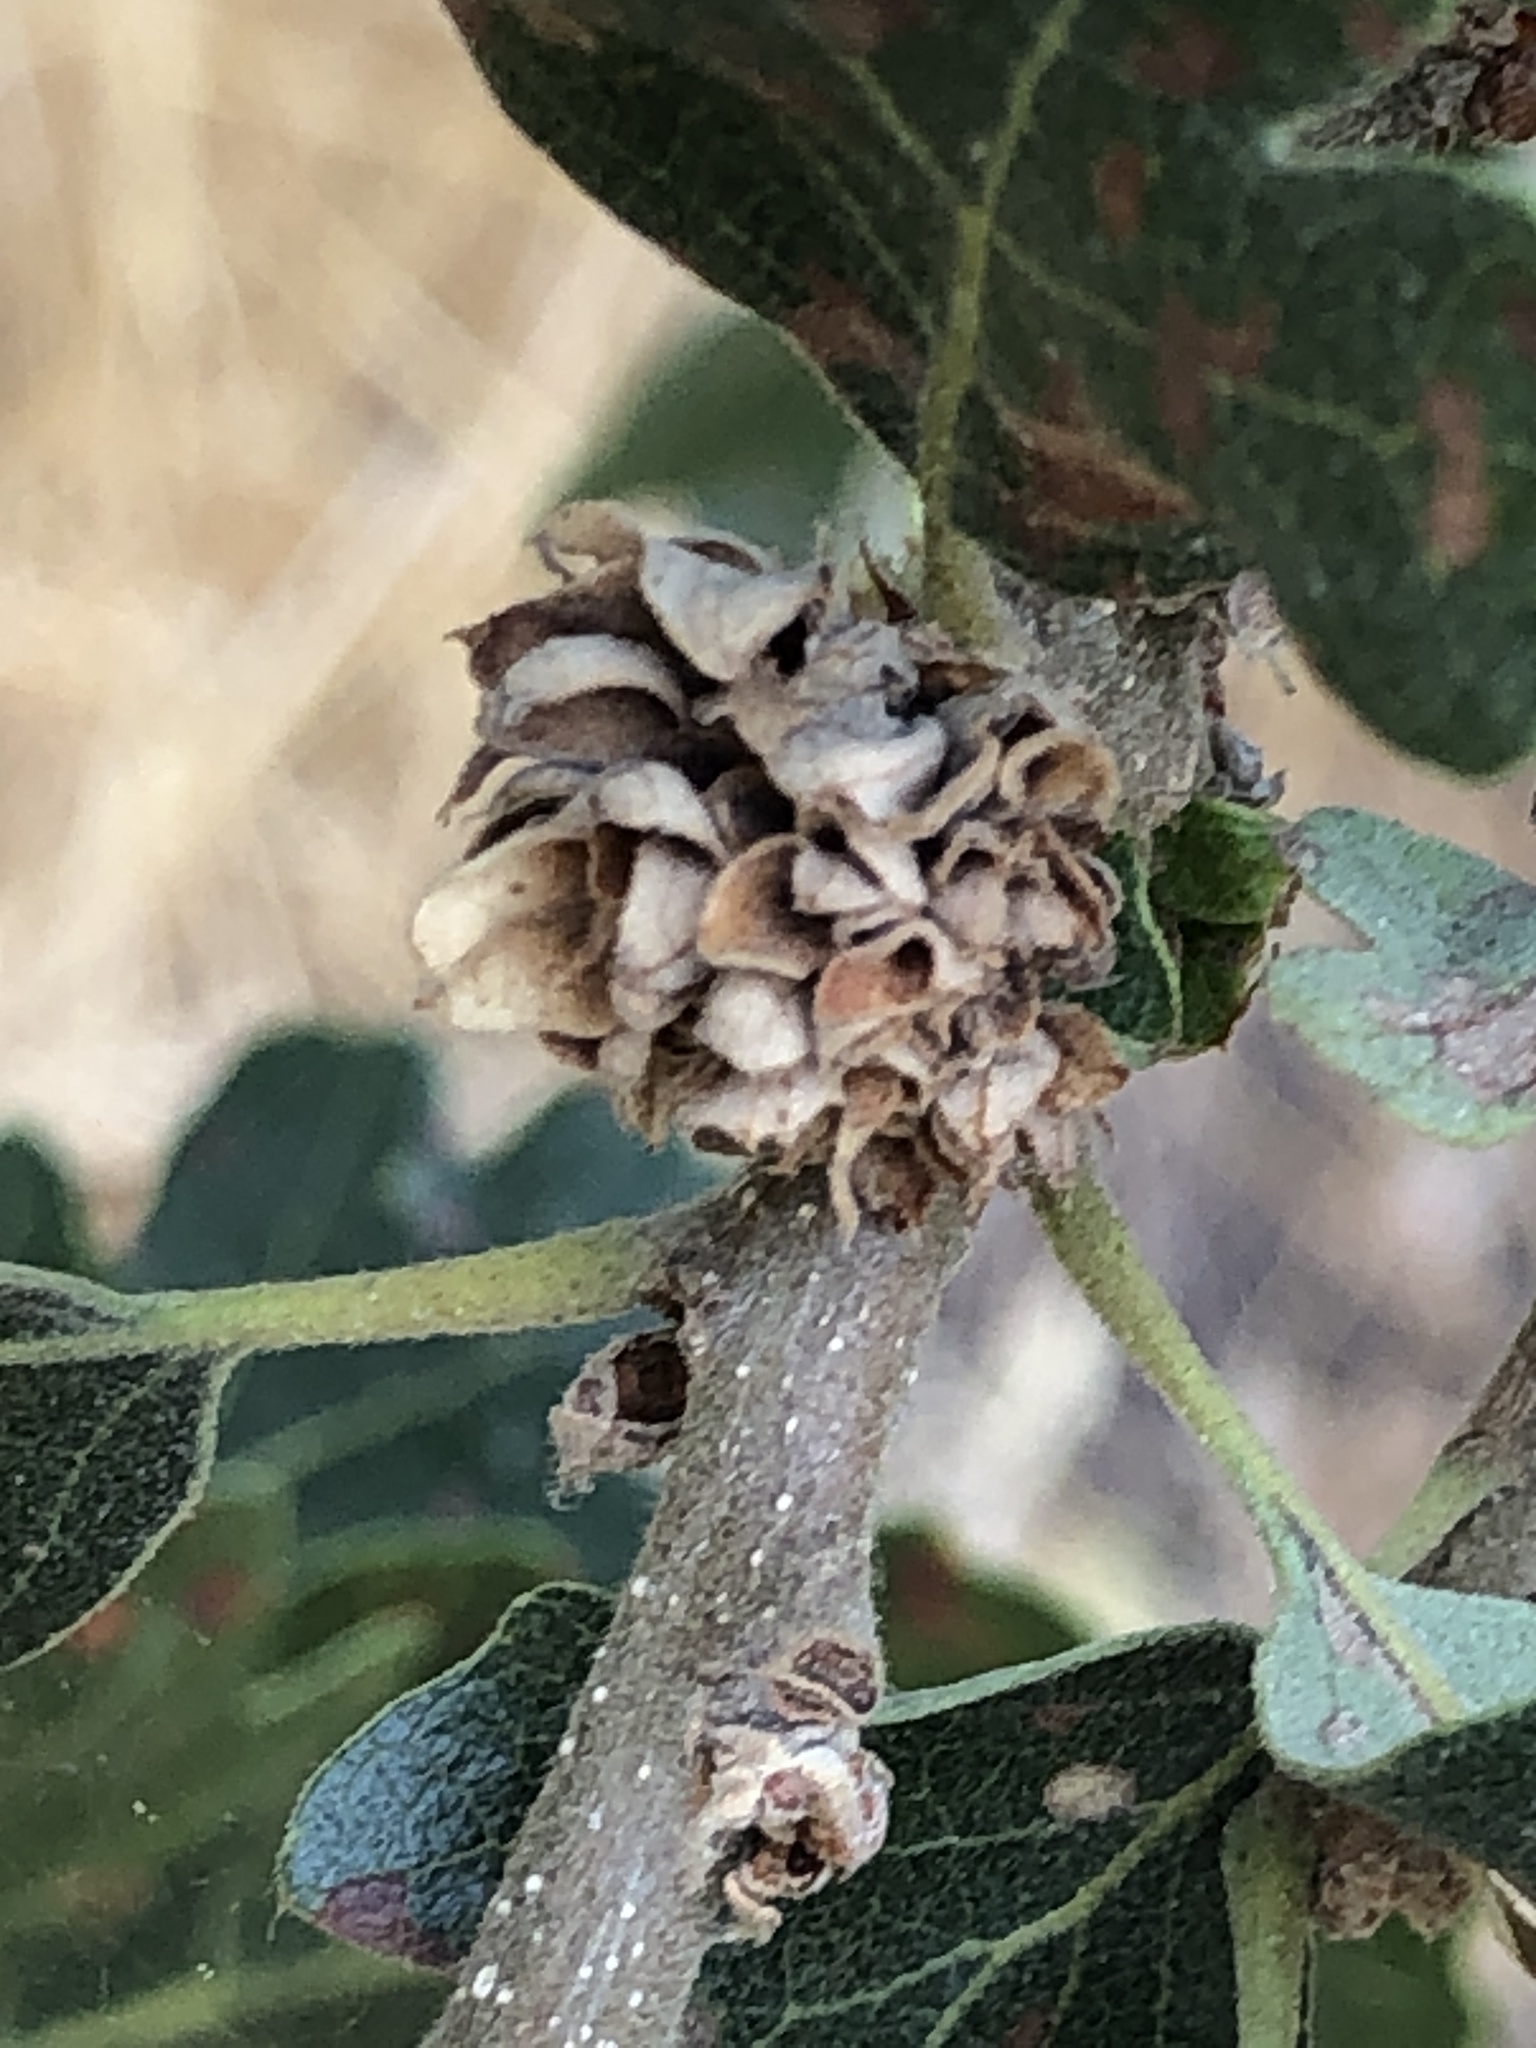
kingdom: Animalia
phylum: Arthropoda
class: Insecta
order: Hymenoptera
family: Cynipidae
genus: Andricus
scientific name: Andricus
